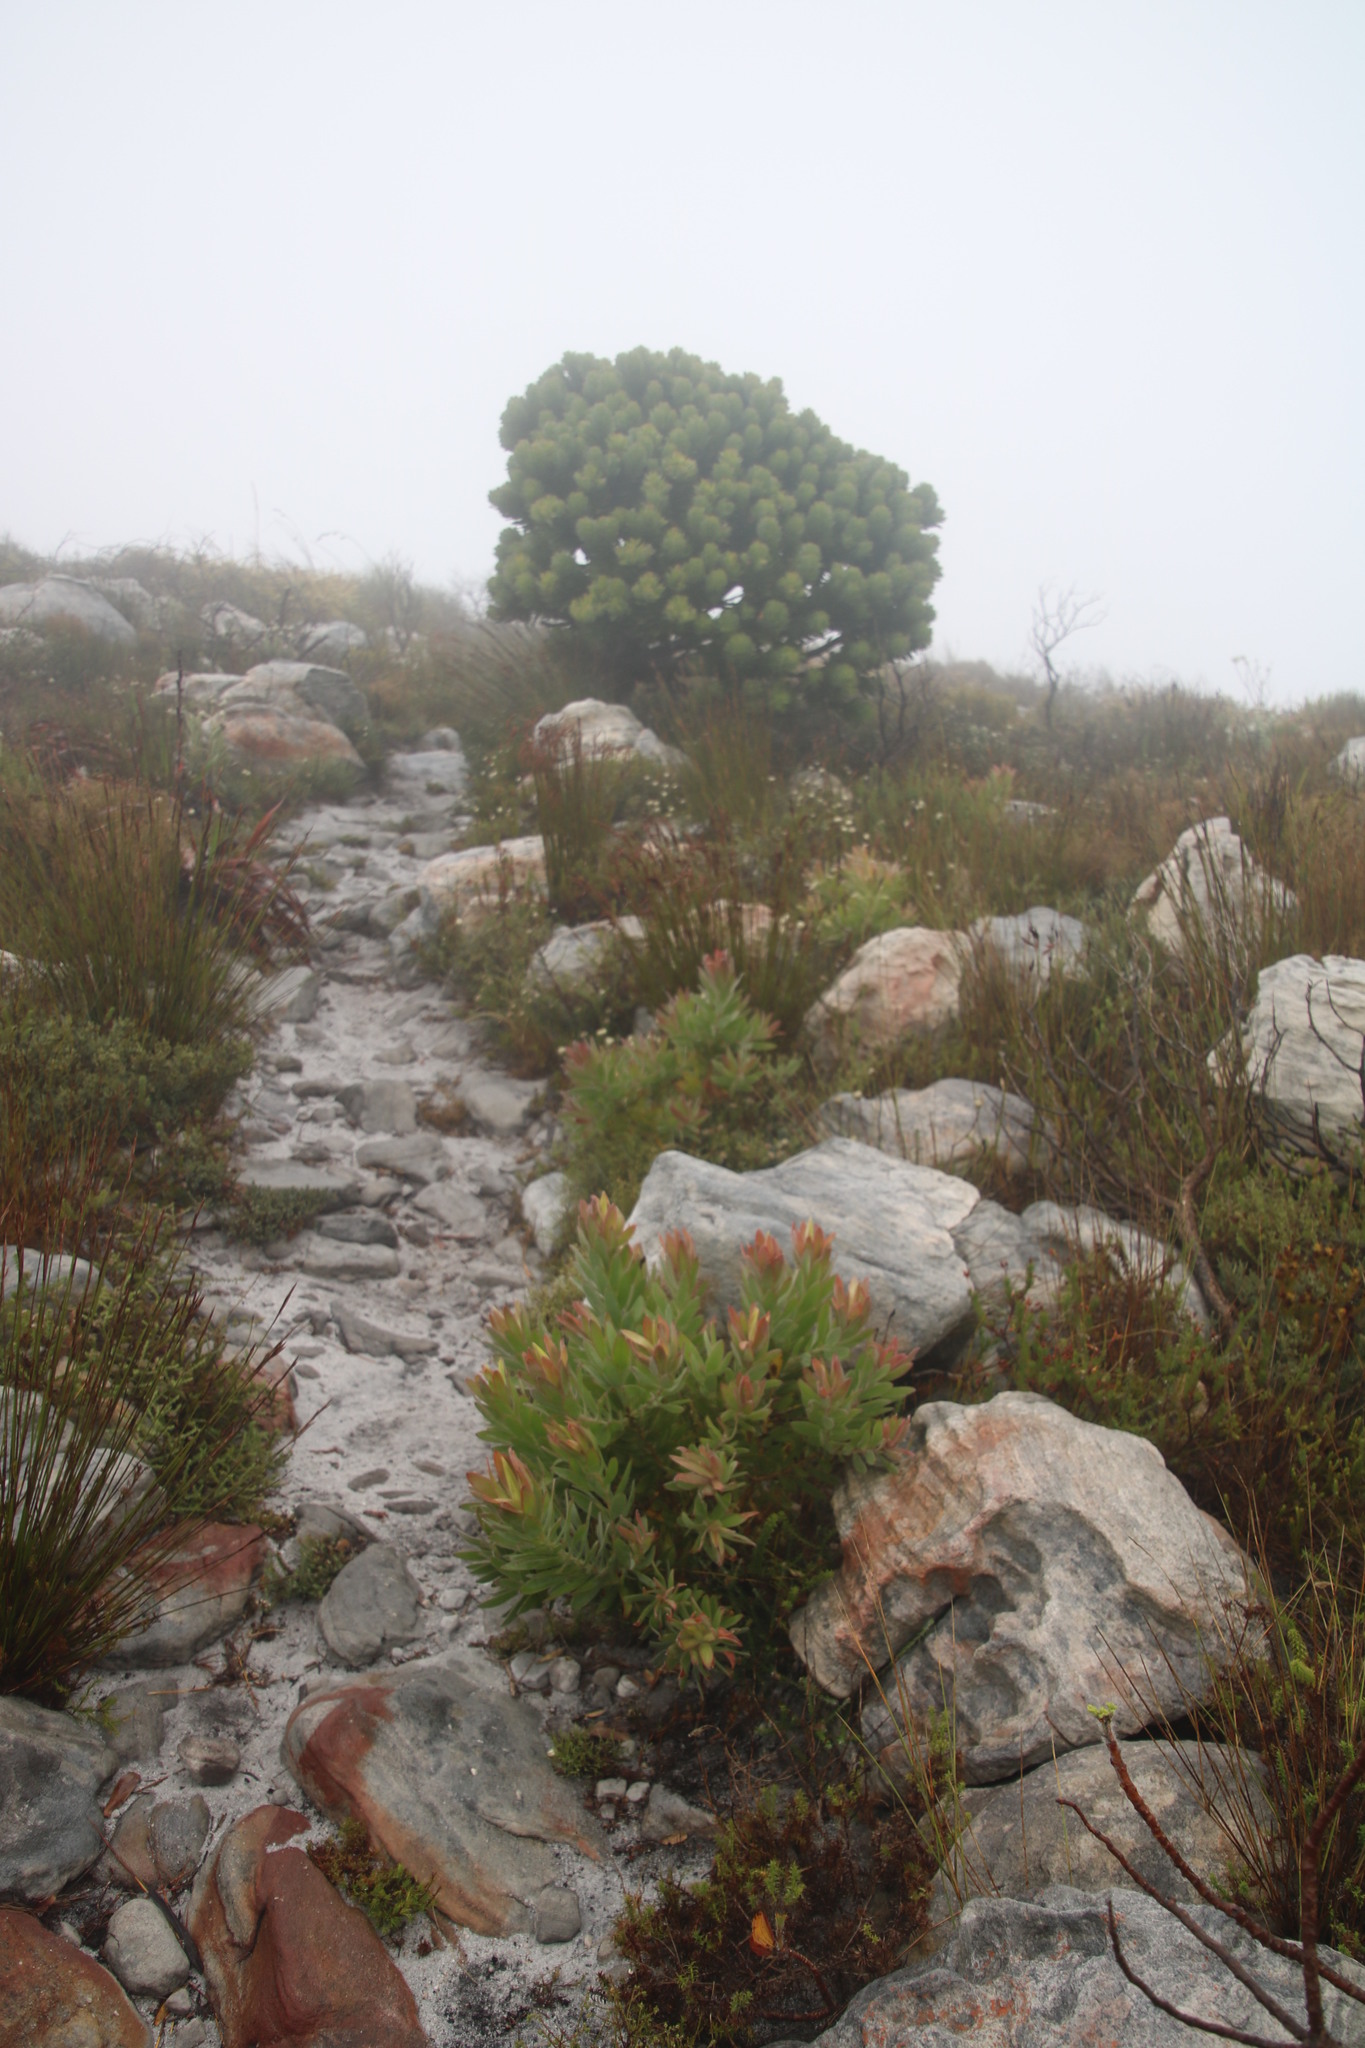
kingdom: Plantae
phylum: Tracheophyta
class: Magnoliopsida
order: Proteales
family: Proteaceae
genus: Leucadendron
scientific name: Leucadendron laureolum
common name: Golden sunshinebush
